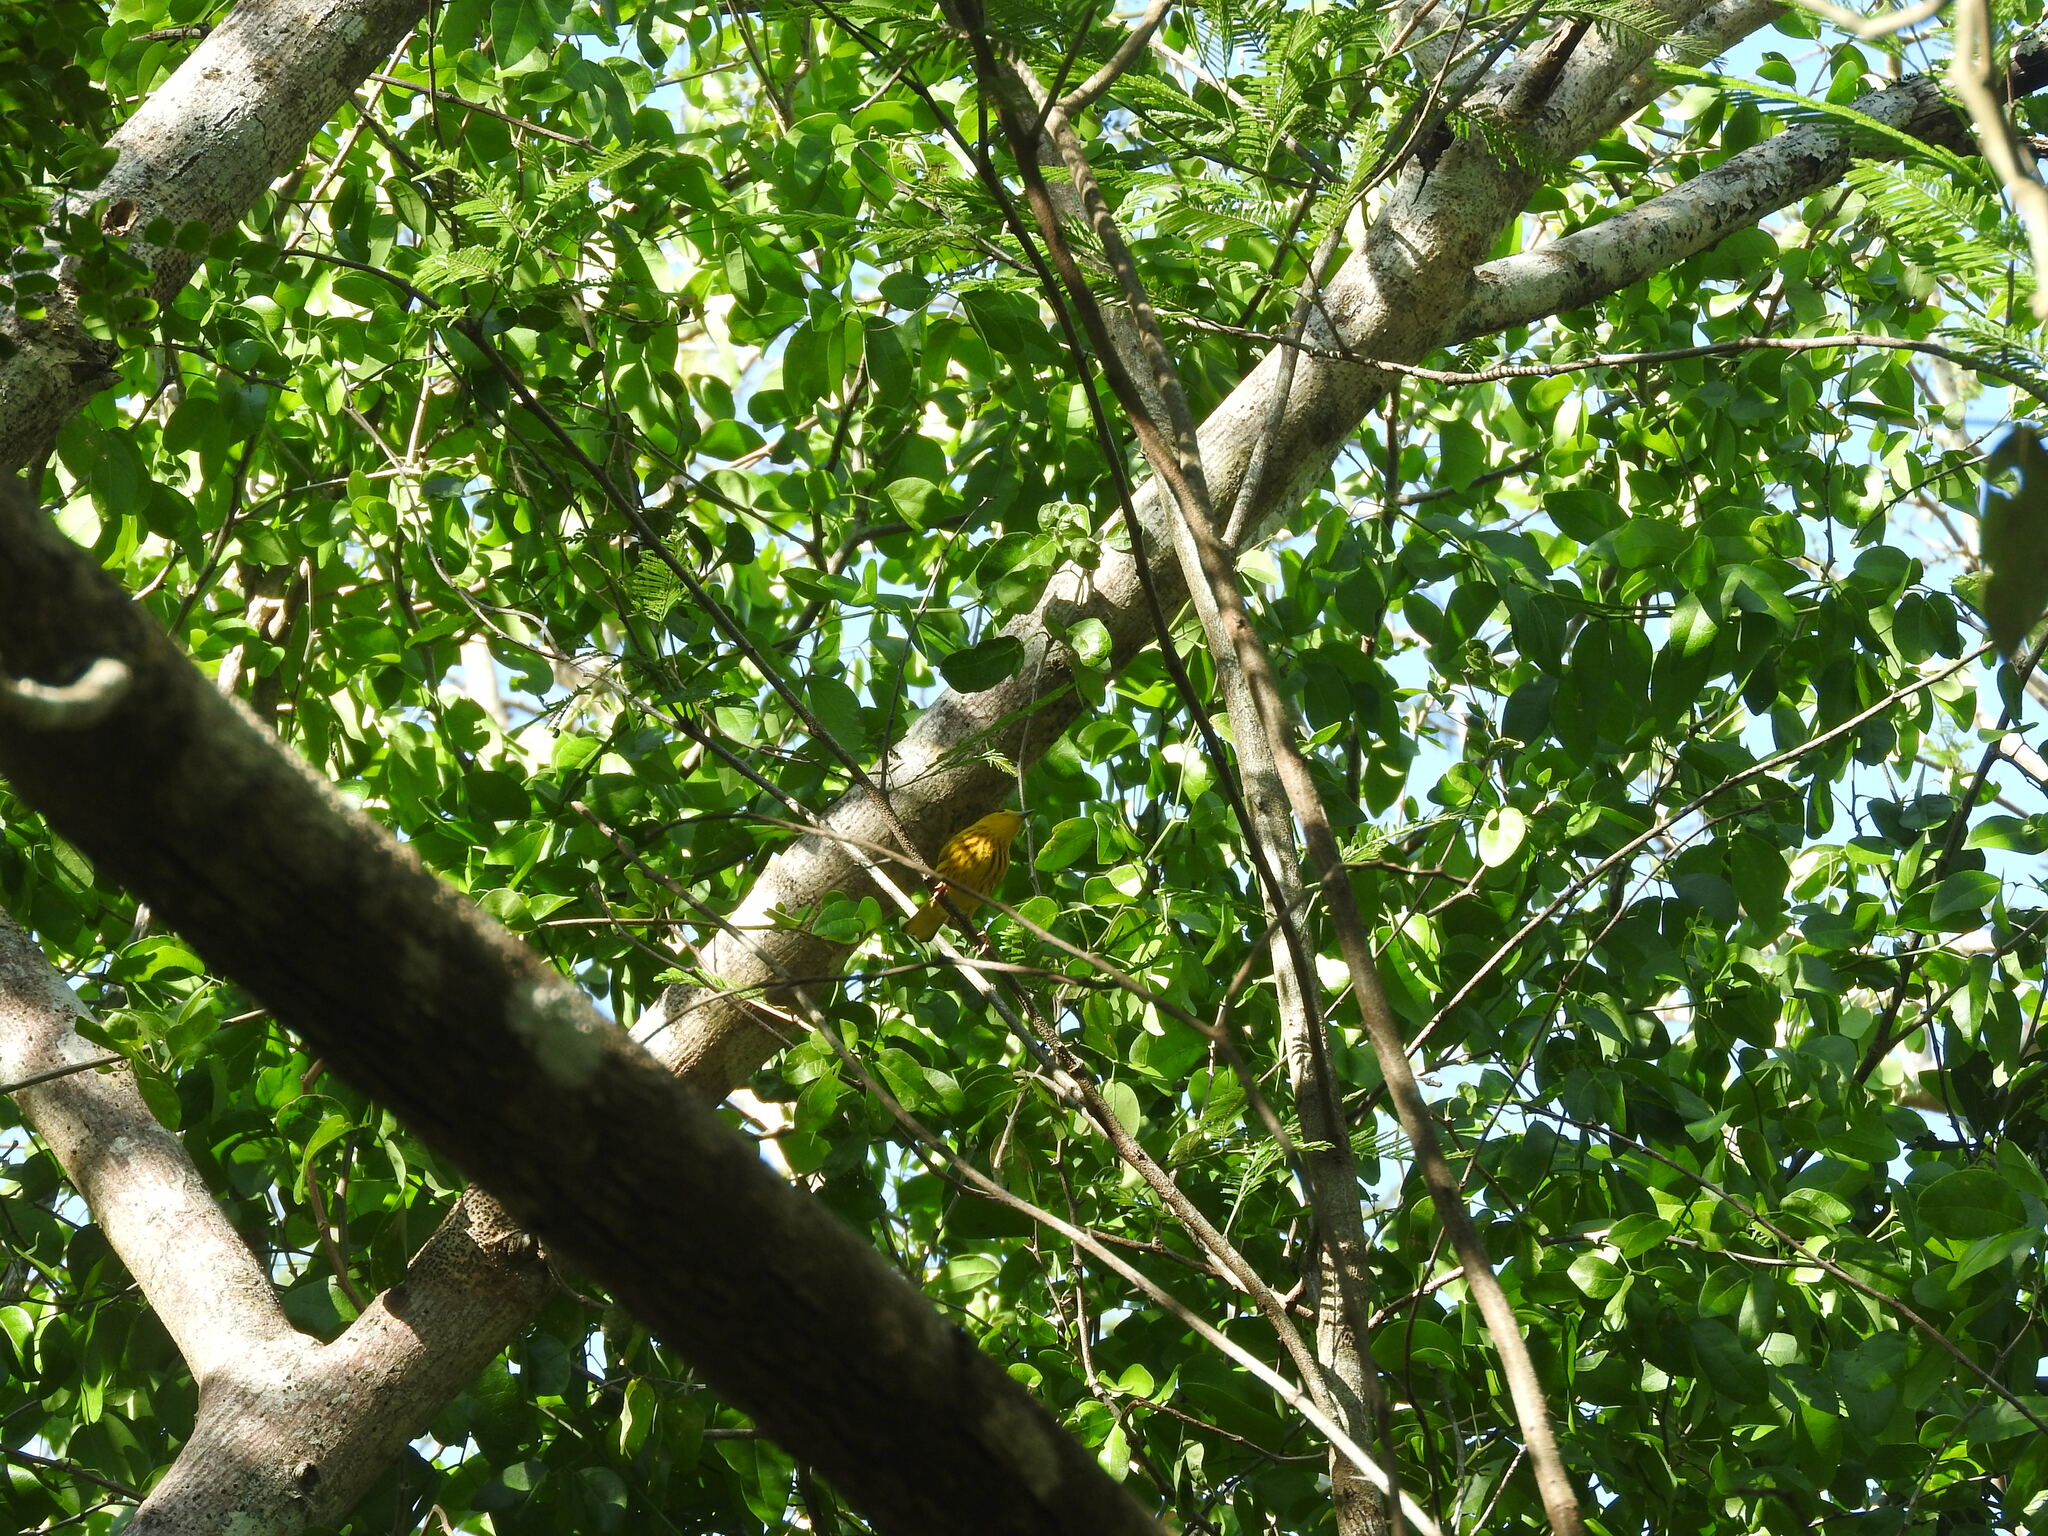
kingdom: Animalia
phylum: Chordata
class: Aves
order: Passeriformes
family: Parulidae
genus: Setophaga
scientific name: Setophaga petechia
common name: Yellow warbler
